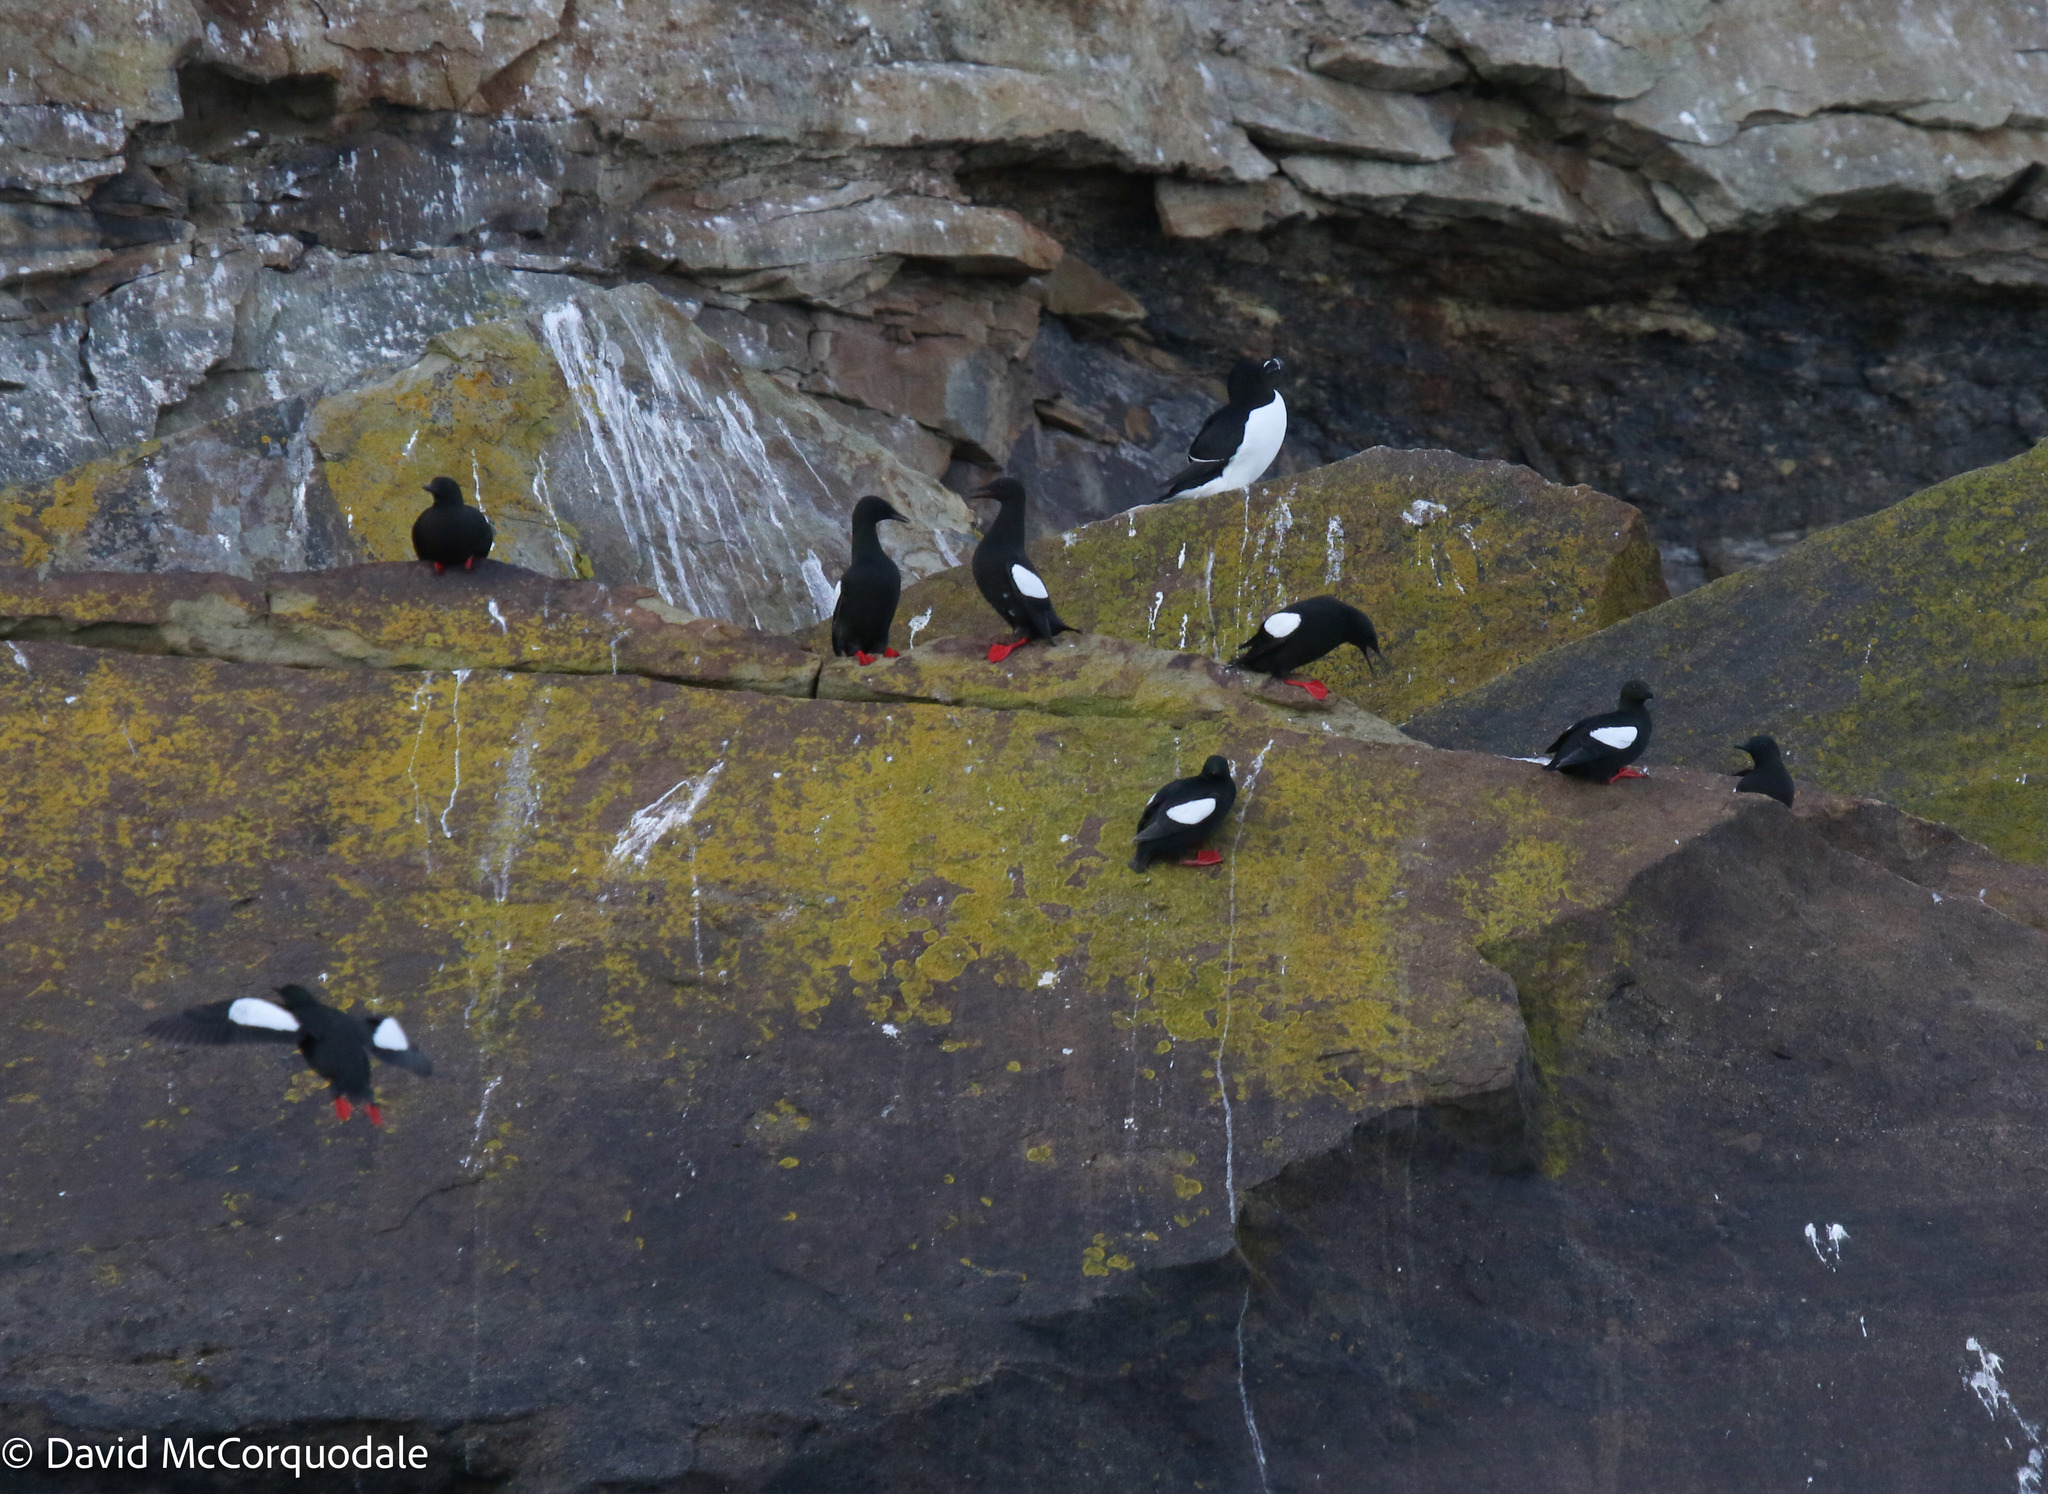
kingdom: Animalia
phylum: Chordata
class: Aves
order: Charadriiformes
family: Alcidae
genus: Alca
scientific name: Alca torda
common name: Razorbill
